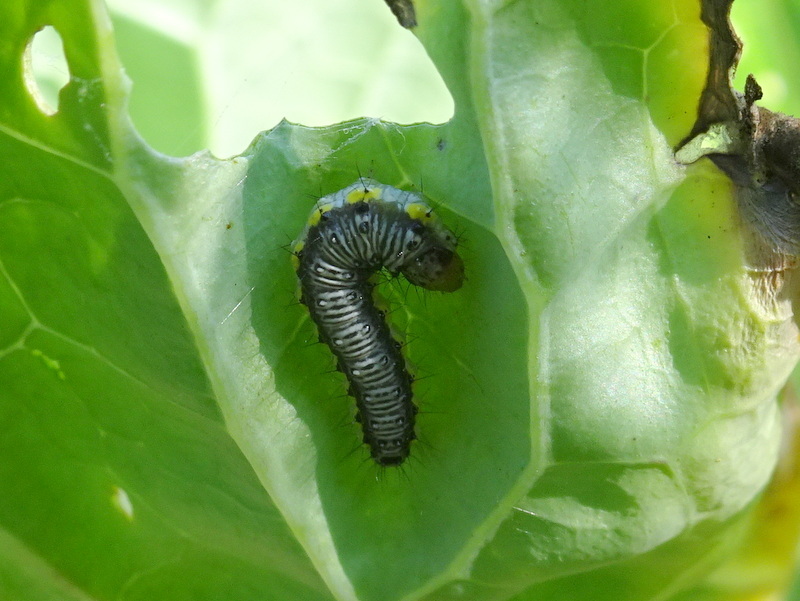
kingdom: Animalia
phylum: Arthropoda
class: Insecta
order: Lepidoptera
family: Crambidae
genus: Evergestis
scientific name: Evergestis rimosalis
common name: Cross-striped cabbageworm moth
